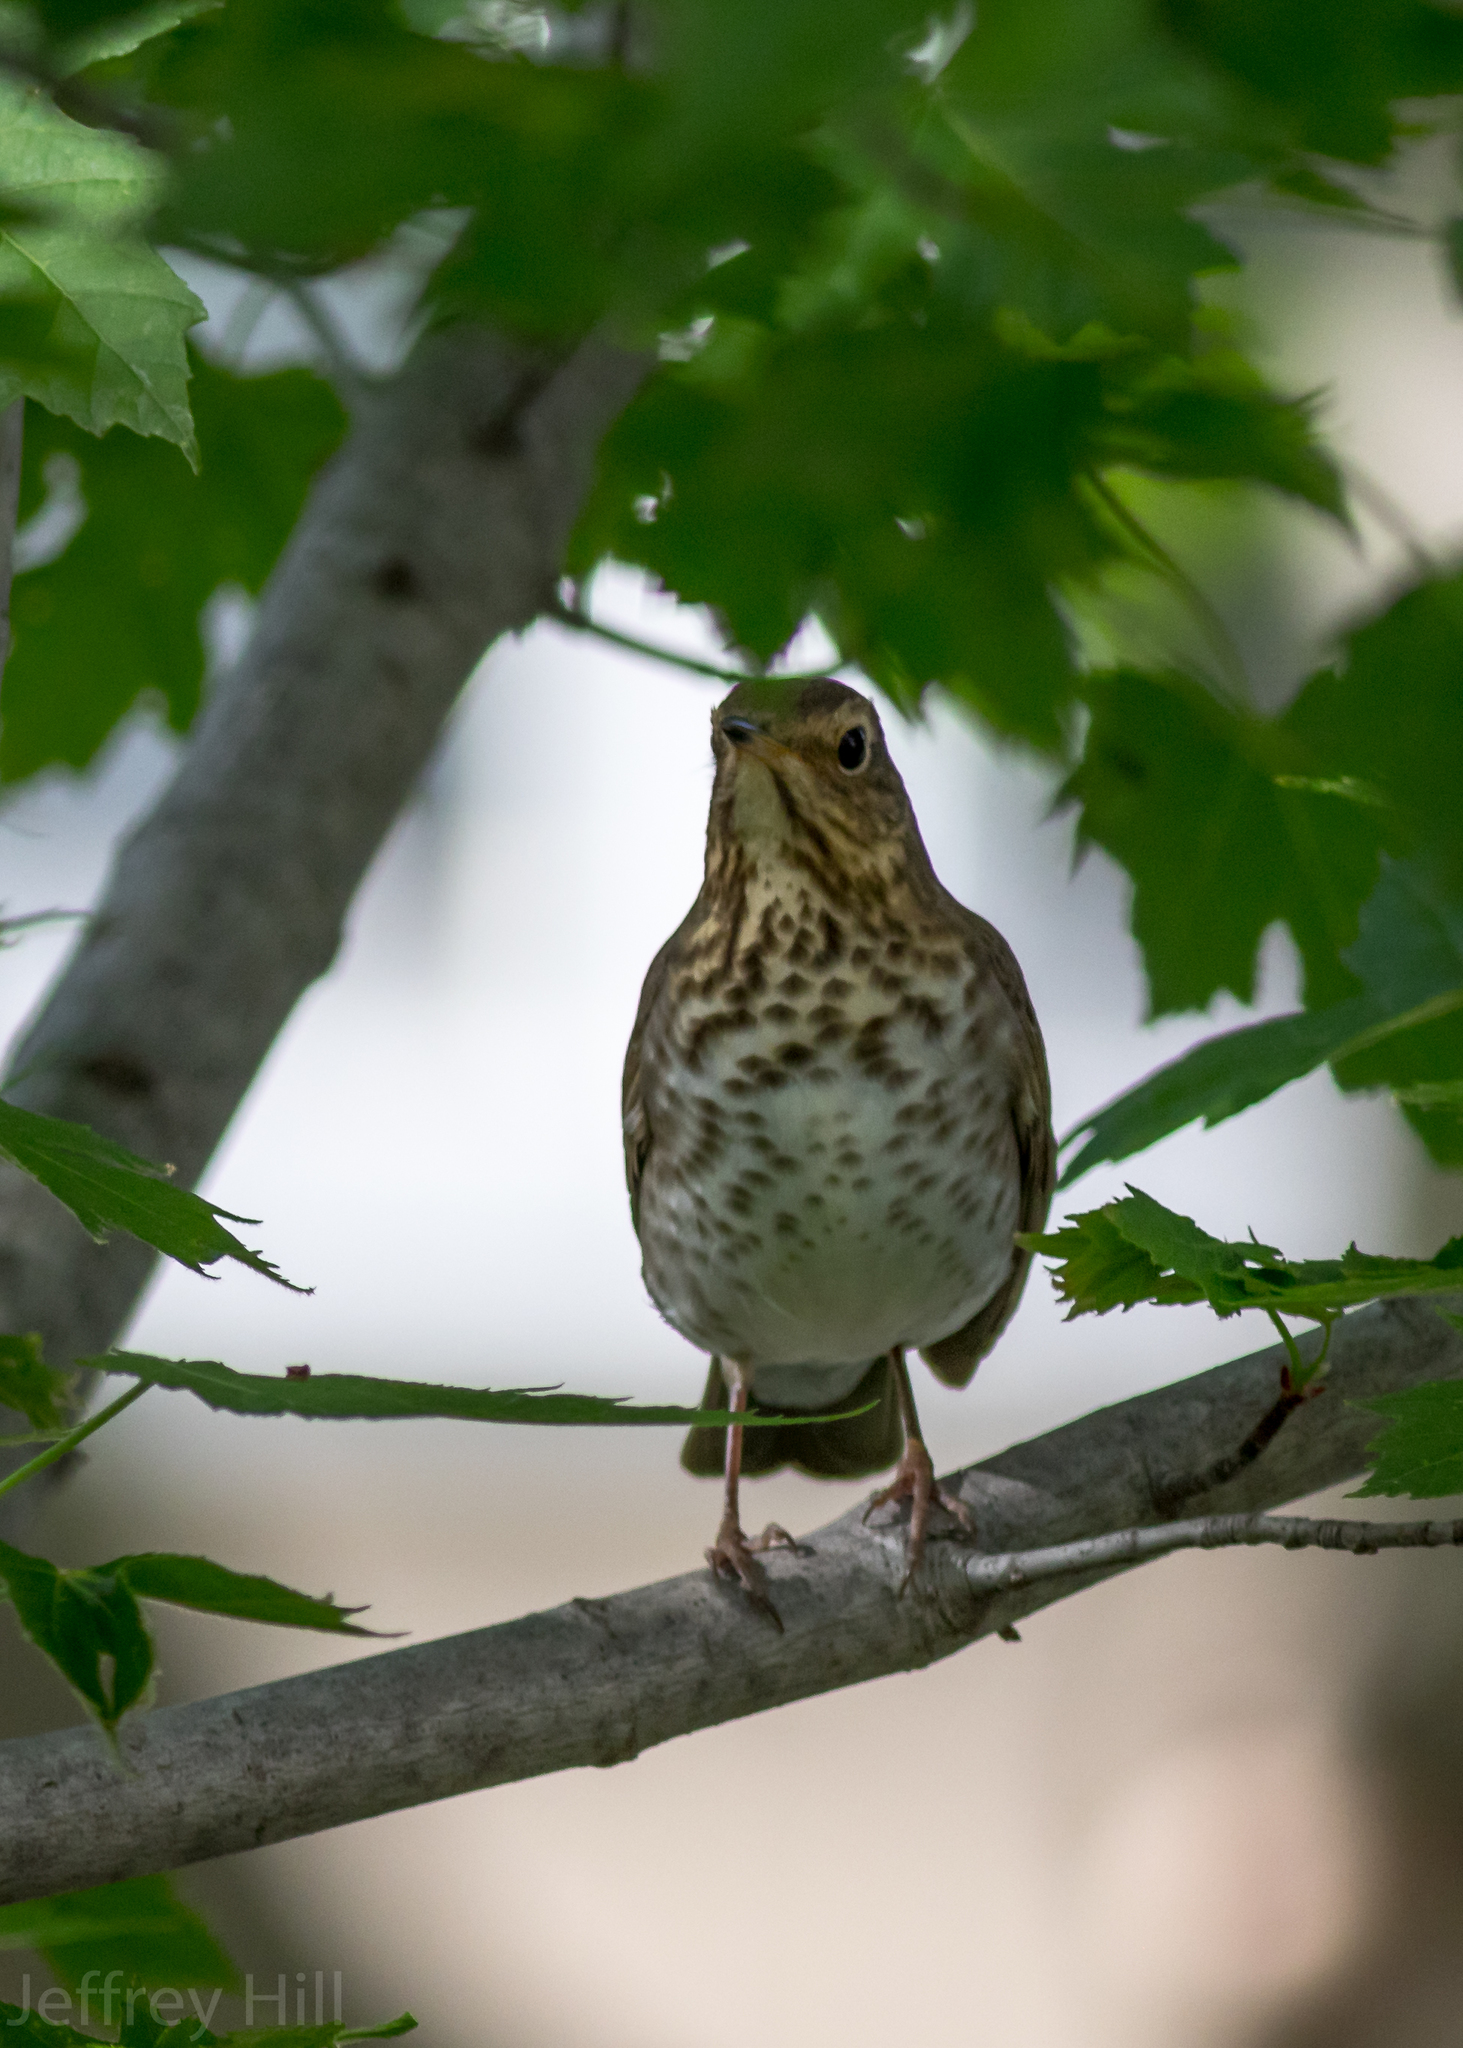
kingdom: Animalia
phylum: Chordata
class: Aves
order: Passeriformes
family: Turdidae
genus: Catharus
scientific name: Catharus ustulatus
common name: Swainson's thrush
